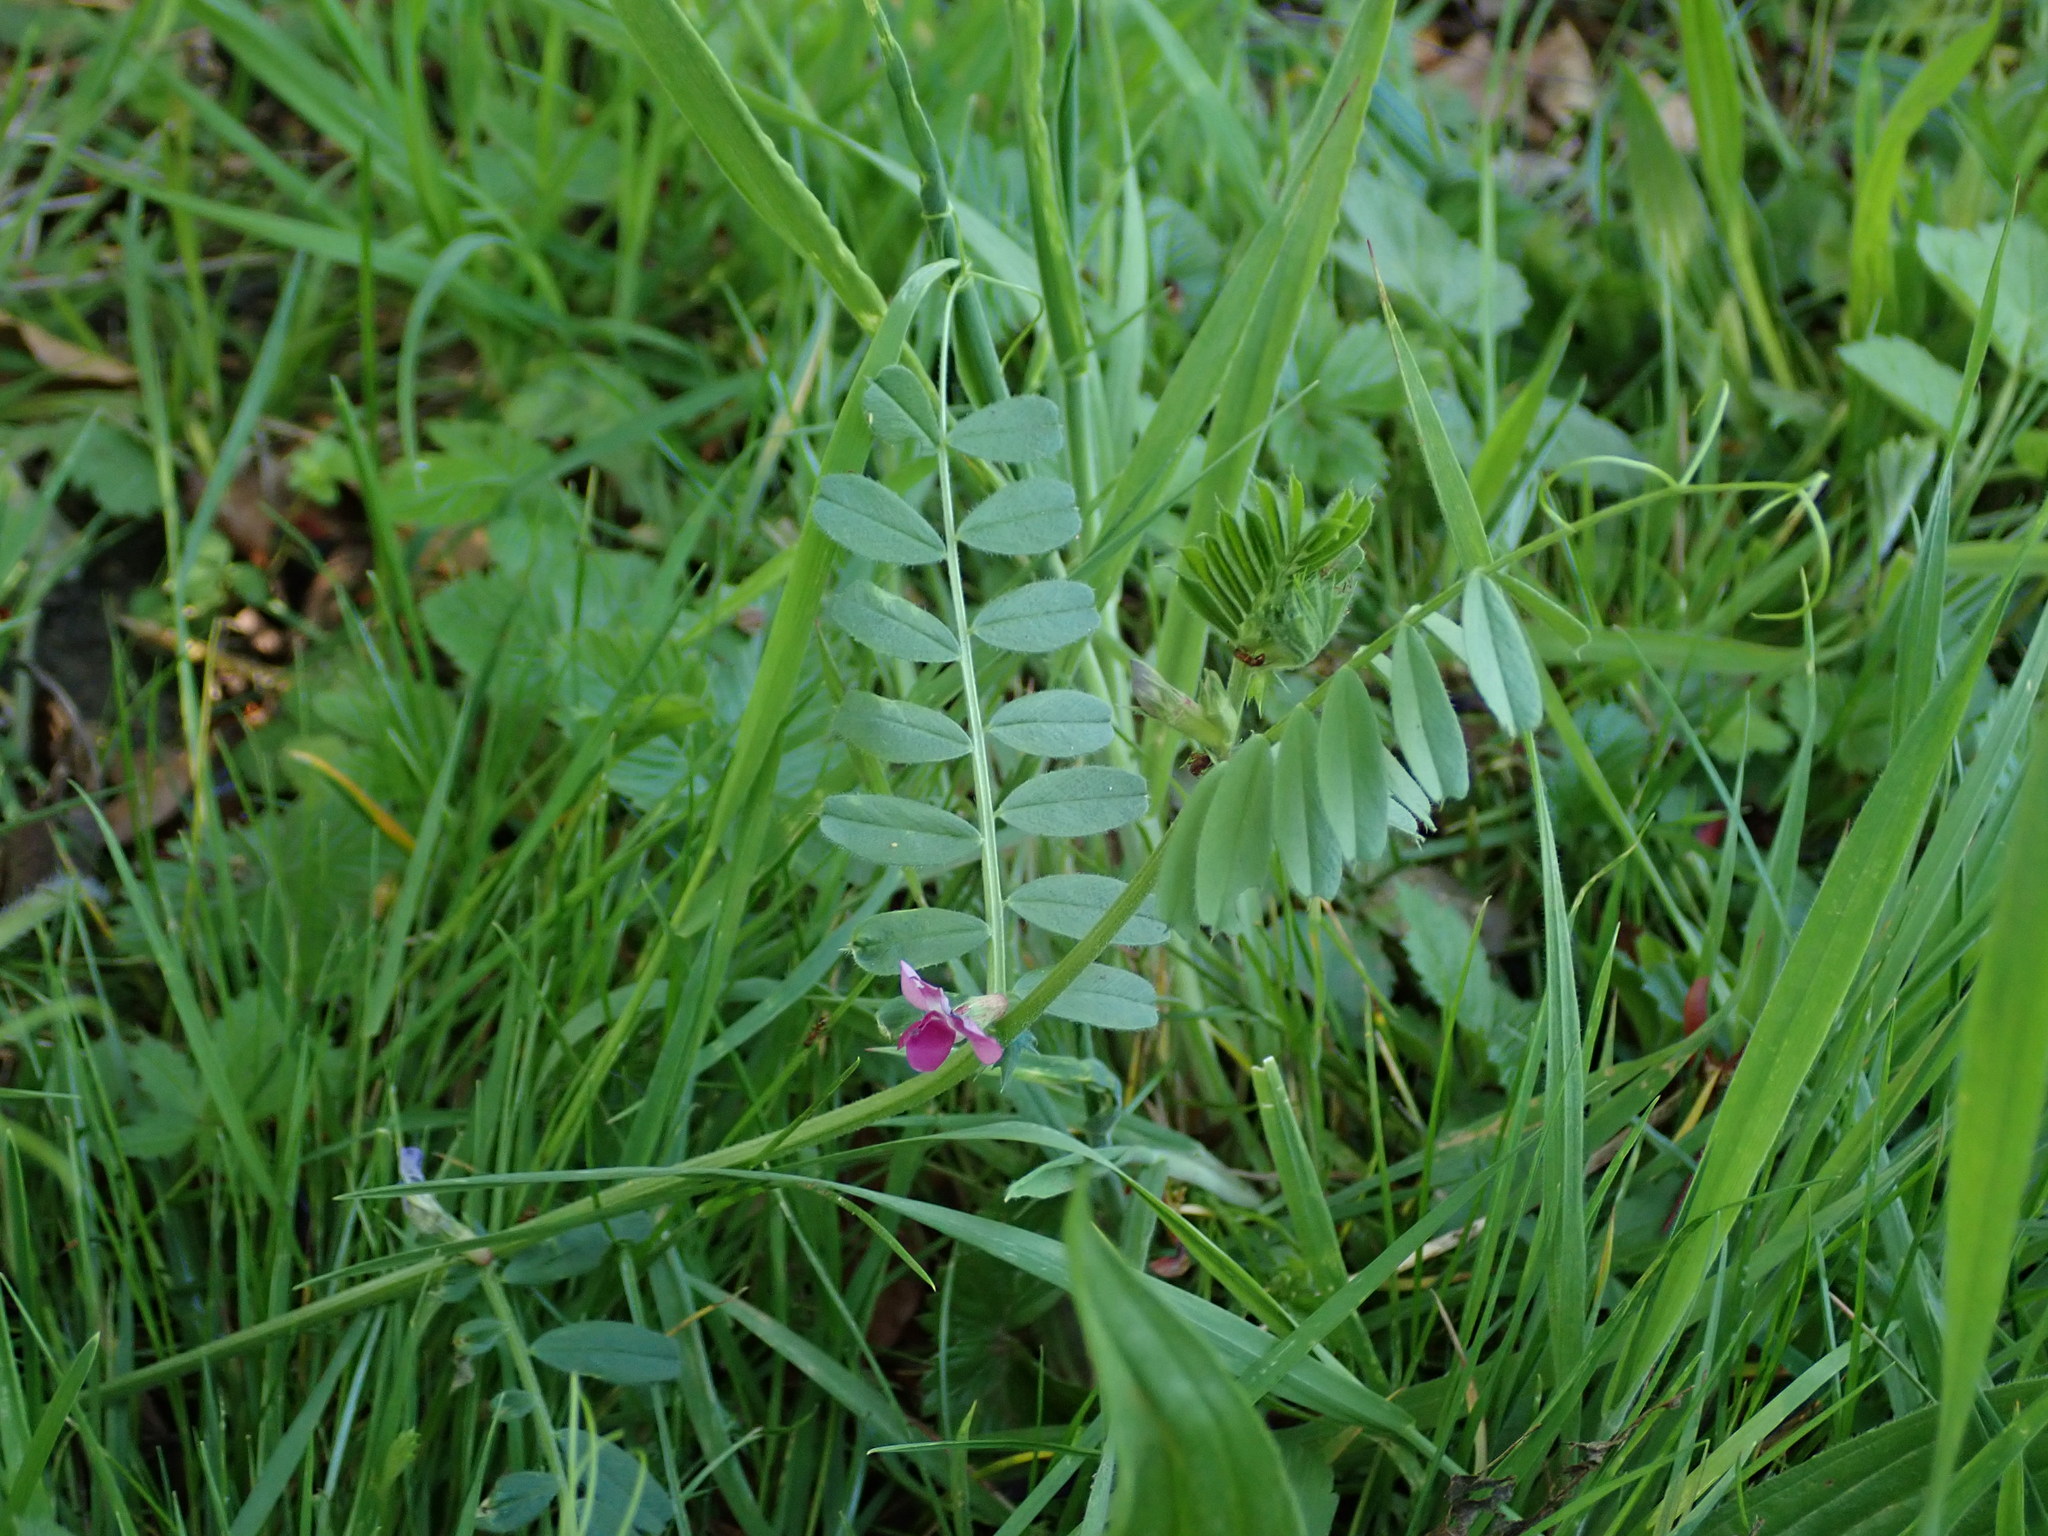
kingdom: Plantae
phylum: Tracheophyta
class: Magnoliopsida
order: Fabales
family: Fabaceae
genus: Vicia
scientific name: Vicia sativa
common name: Garden vetch
